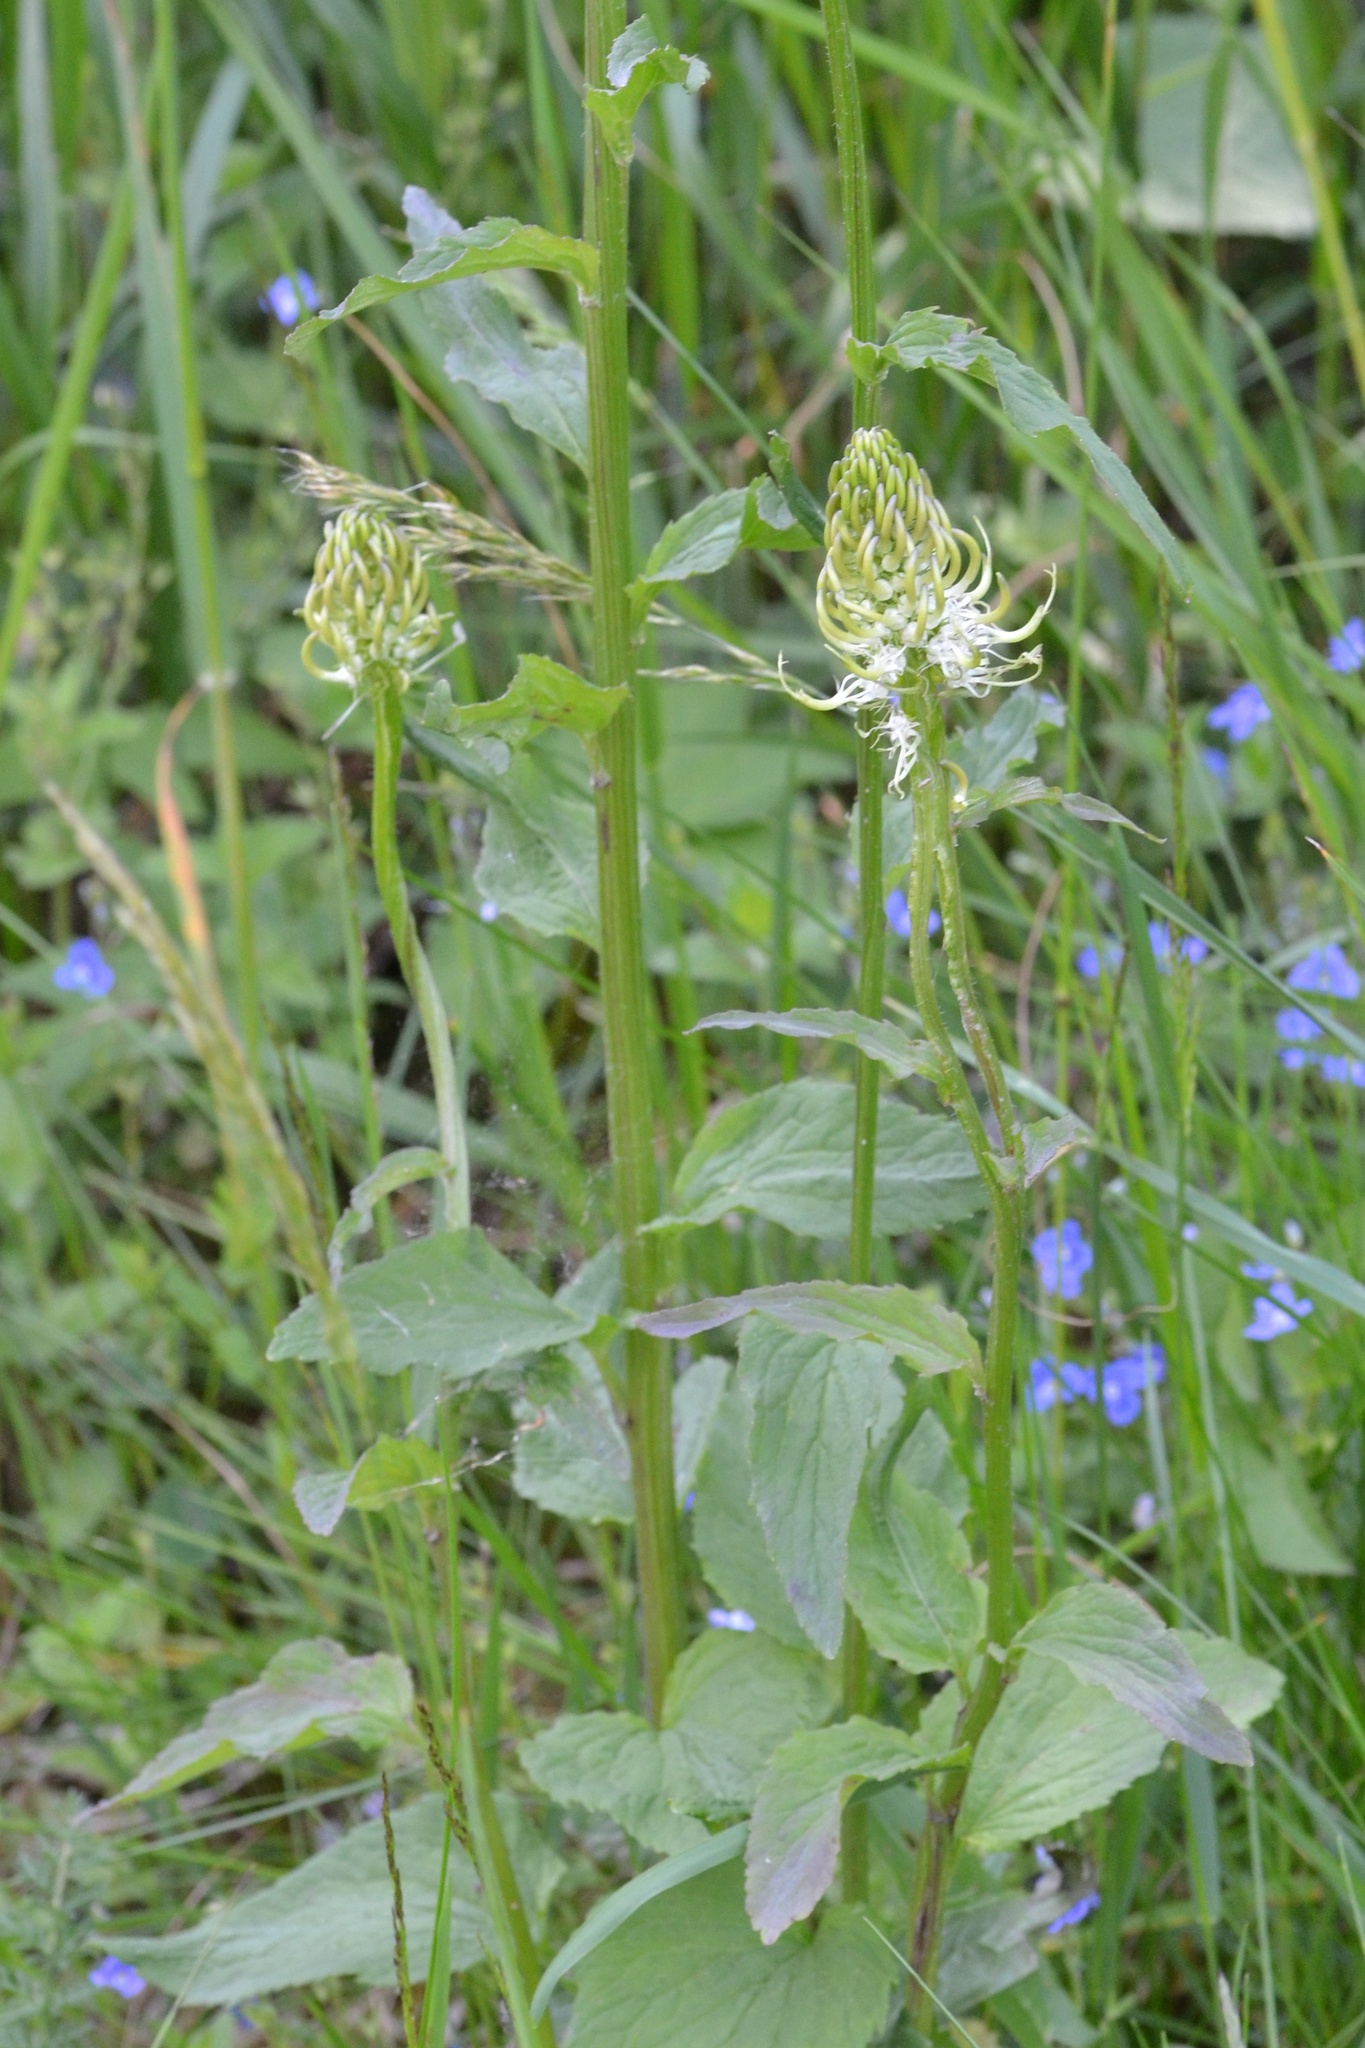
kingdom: Plantae
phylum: Tracheophyta
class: Magnoliopsida
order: Asterales
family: Campanulaceae
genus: Phyteuma
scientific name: Phyteuma spicatum
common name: Spiked rampion
